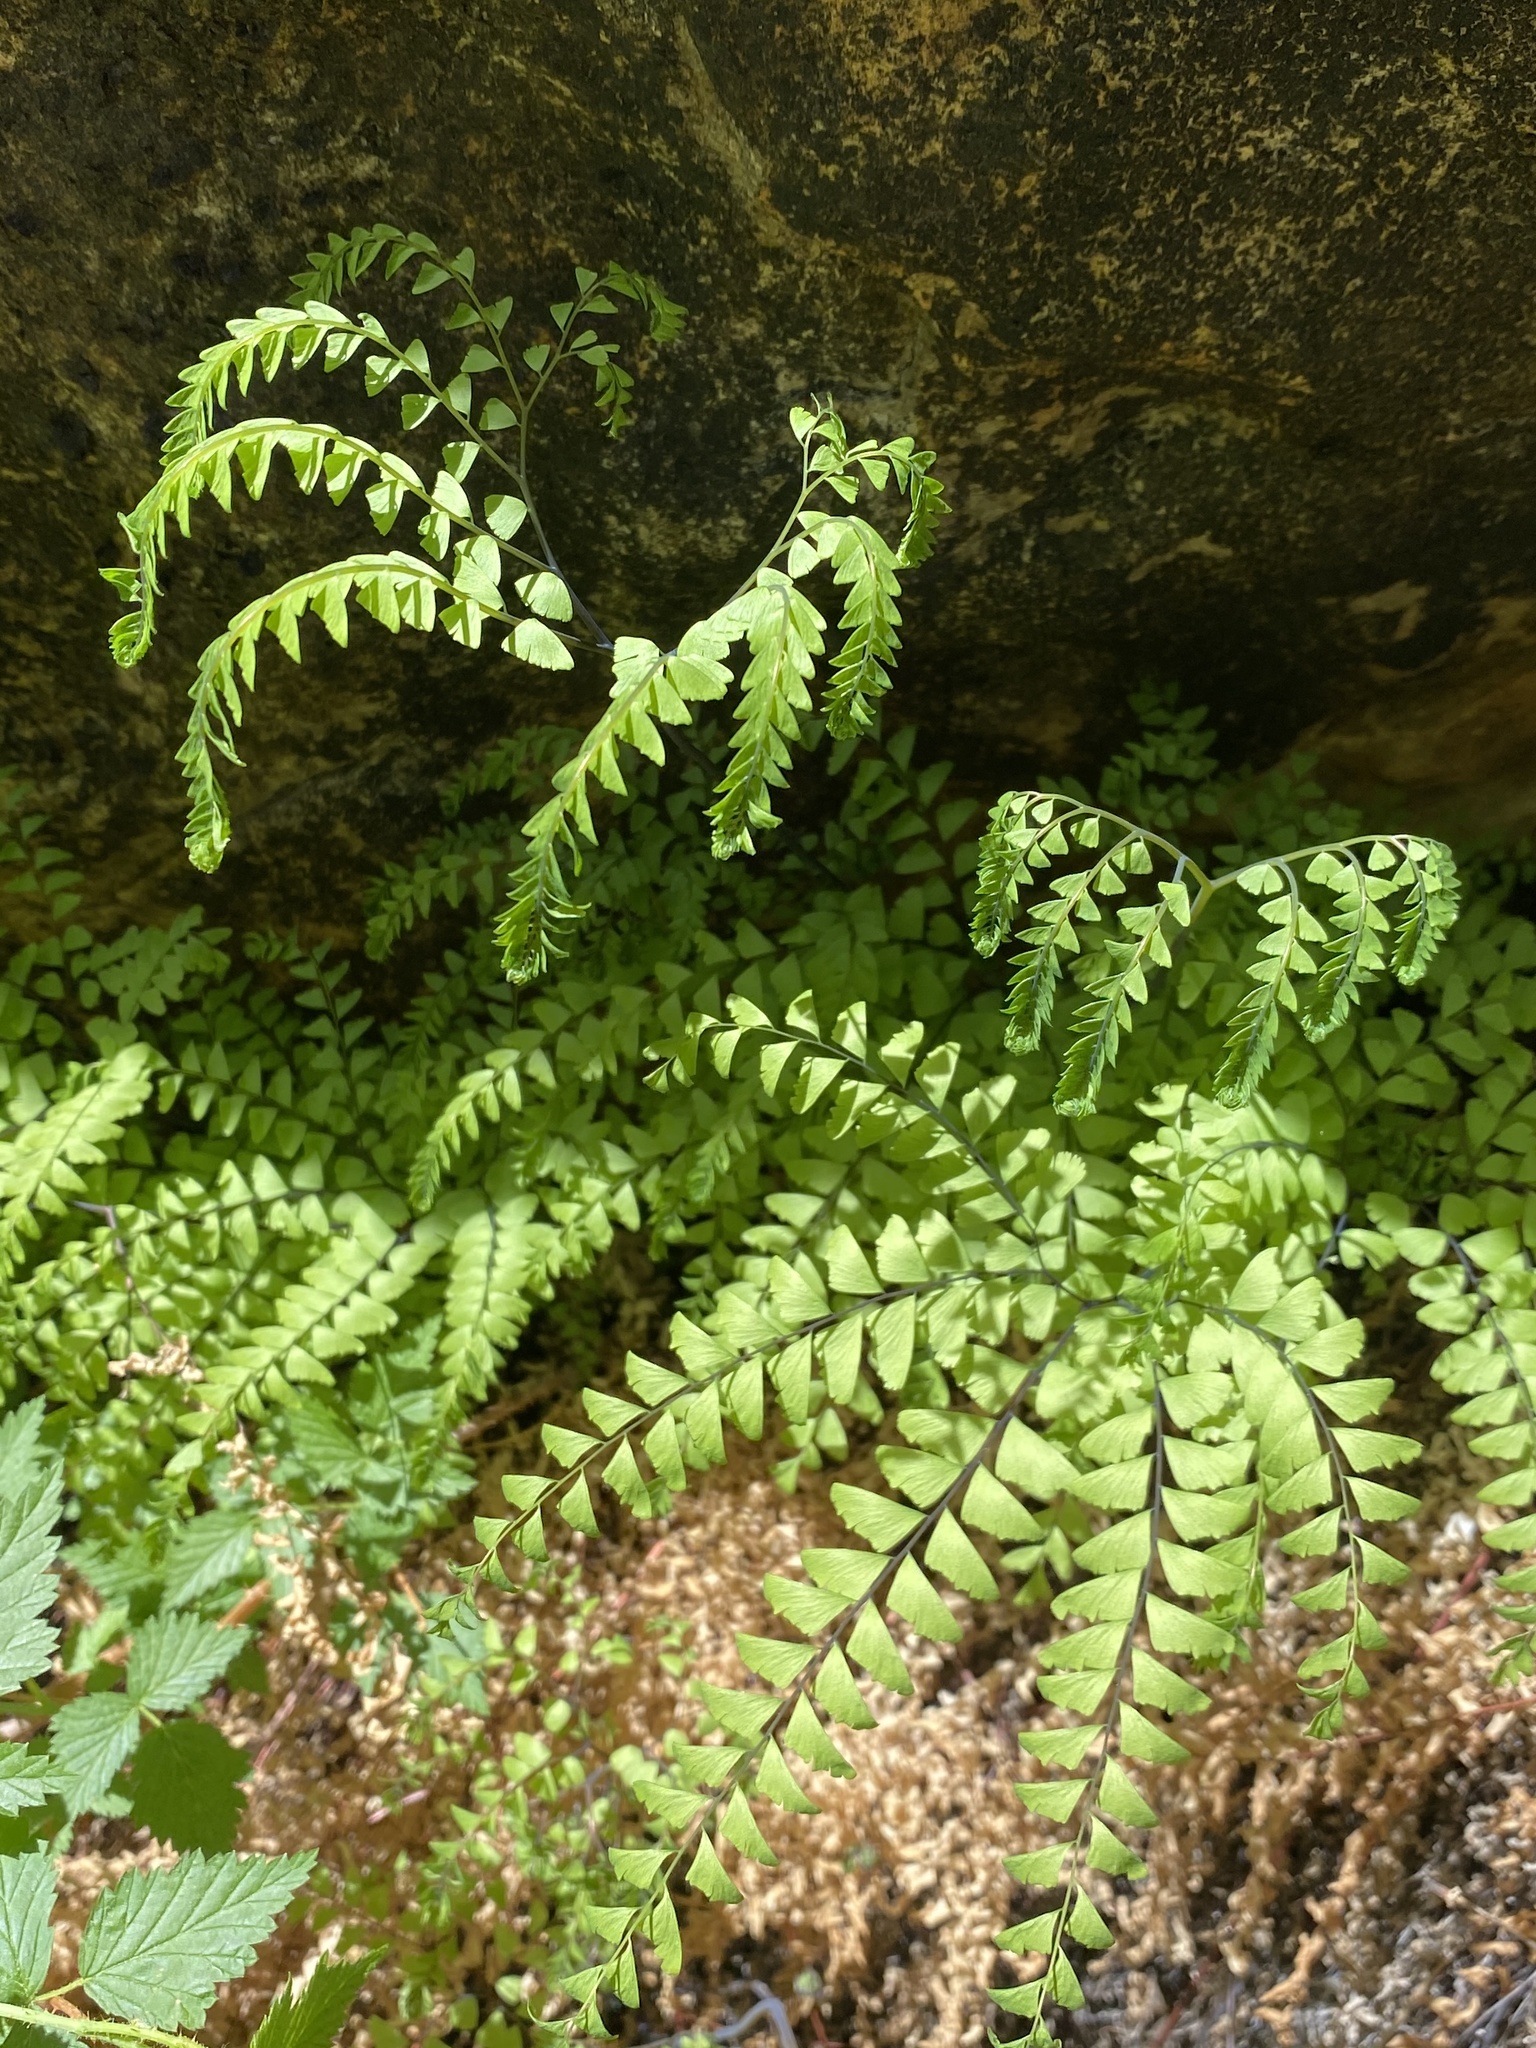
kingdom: Plantae
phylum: Tracheophyta
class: Polypodiopsida
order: Polypodiales
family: Pteridaceae
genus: Adiantum
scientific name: Adiantum aleuticum
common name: Aleutian maidenhair fern
